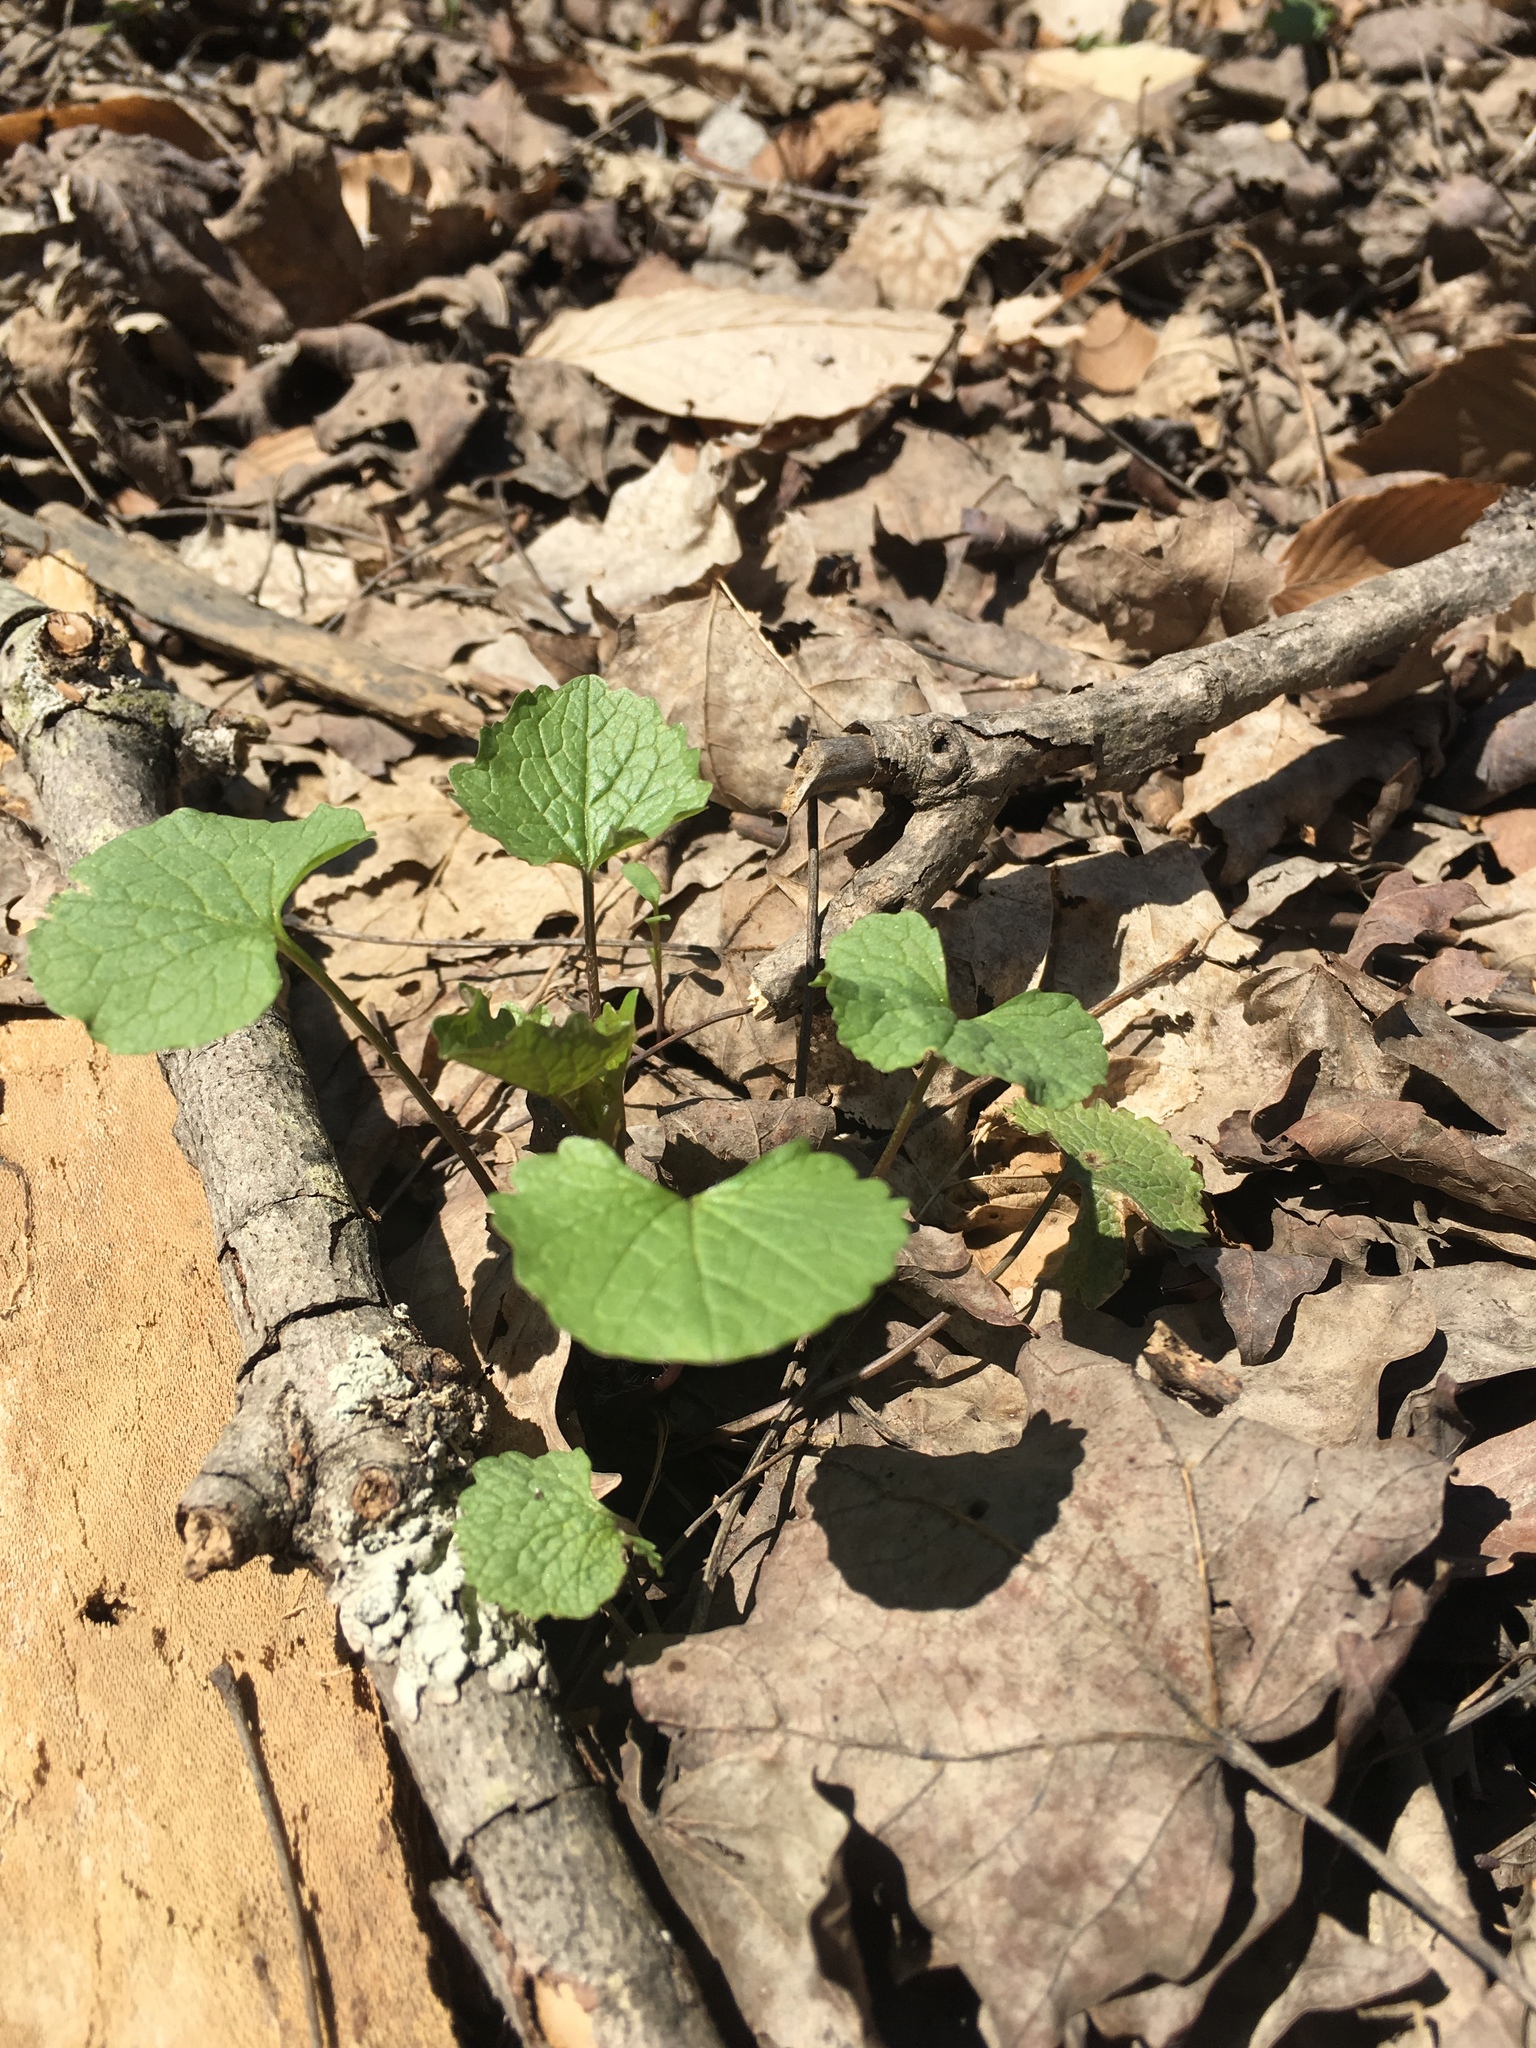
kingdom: Plantae
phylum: Tracheophyta
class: Magnoliopsida
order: Brassicales
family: Brassicaceae
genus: Alliaria
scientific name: Alliaria petiolata
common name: Garlic mustard
